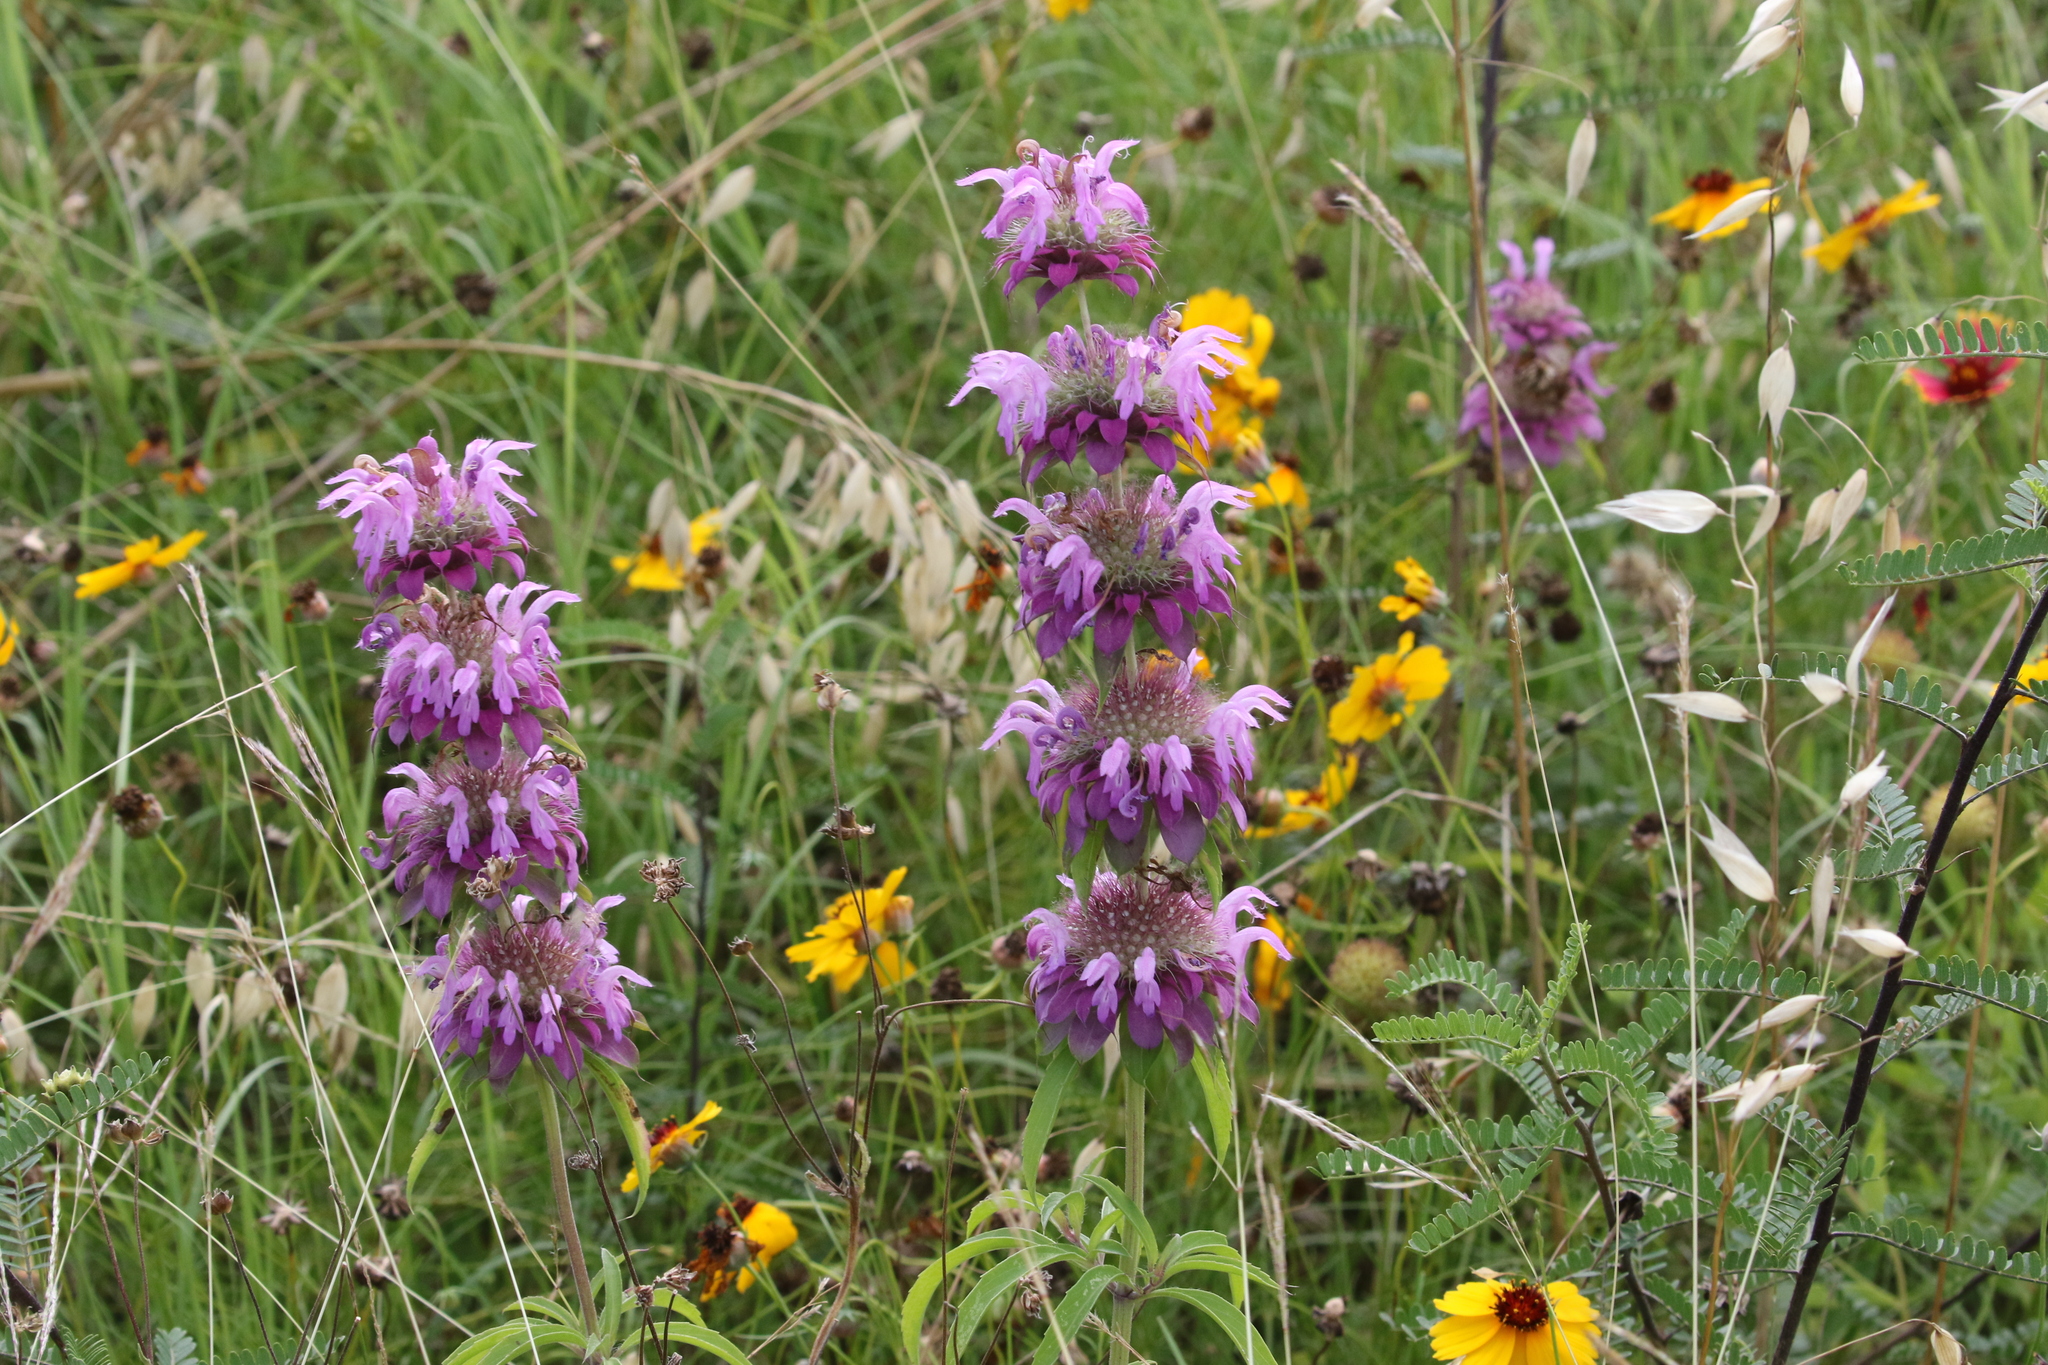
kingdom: Plantae
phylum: Tracheophyta
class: Magnoliopsida
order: Lamiales
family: Lamiaceae
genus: Monarda
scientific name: Monarda citriodora
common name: Lemon beebalm
